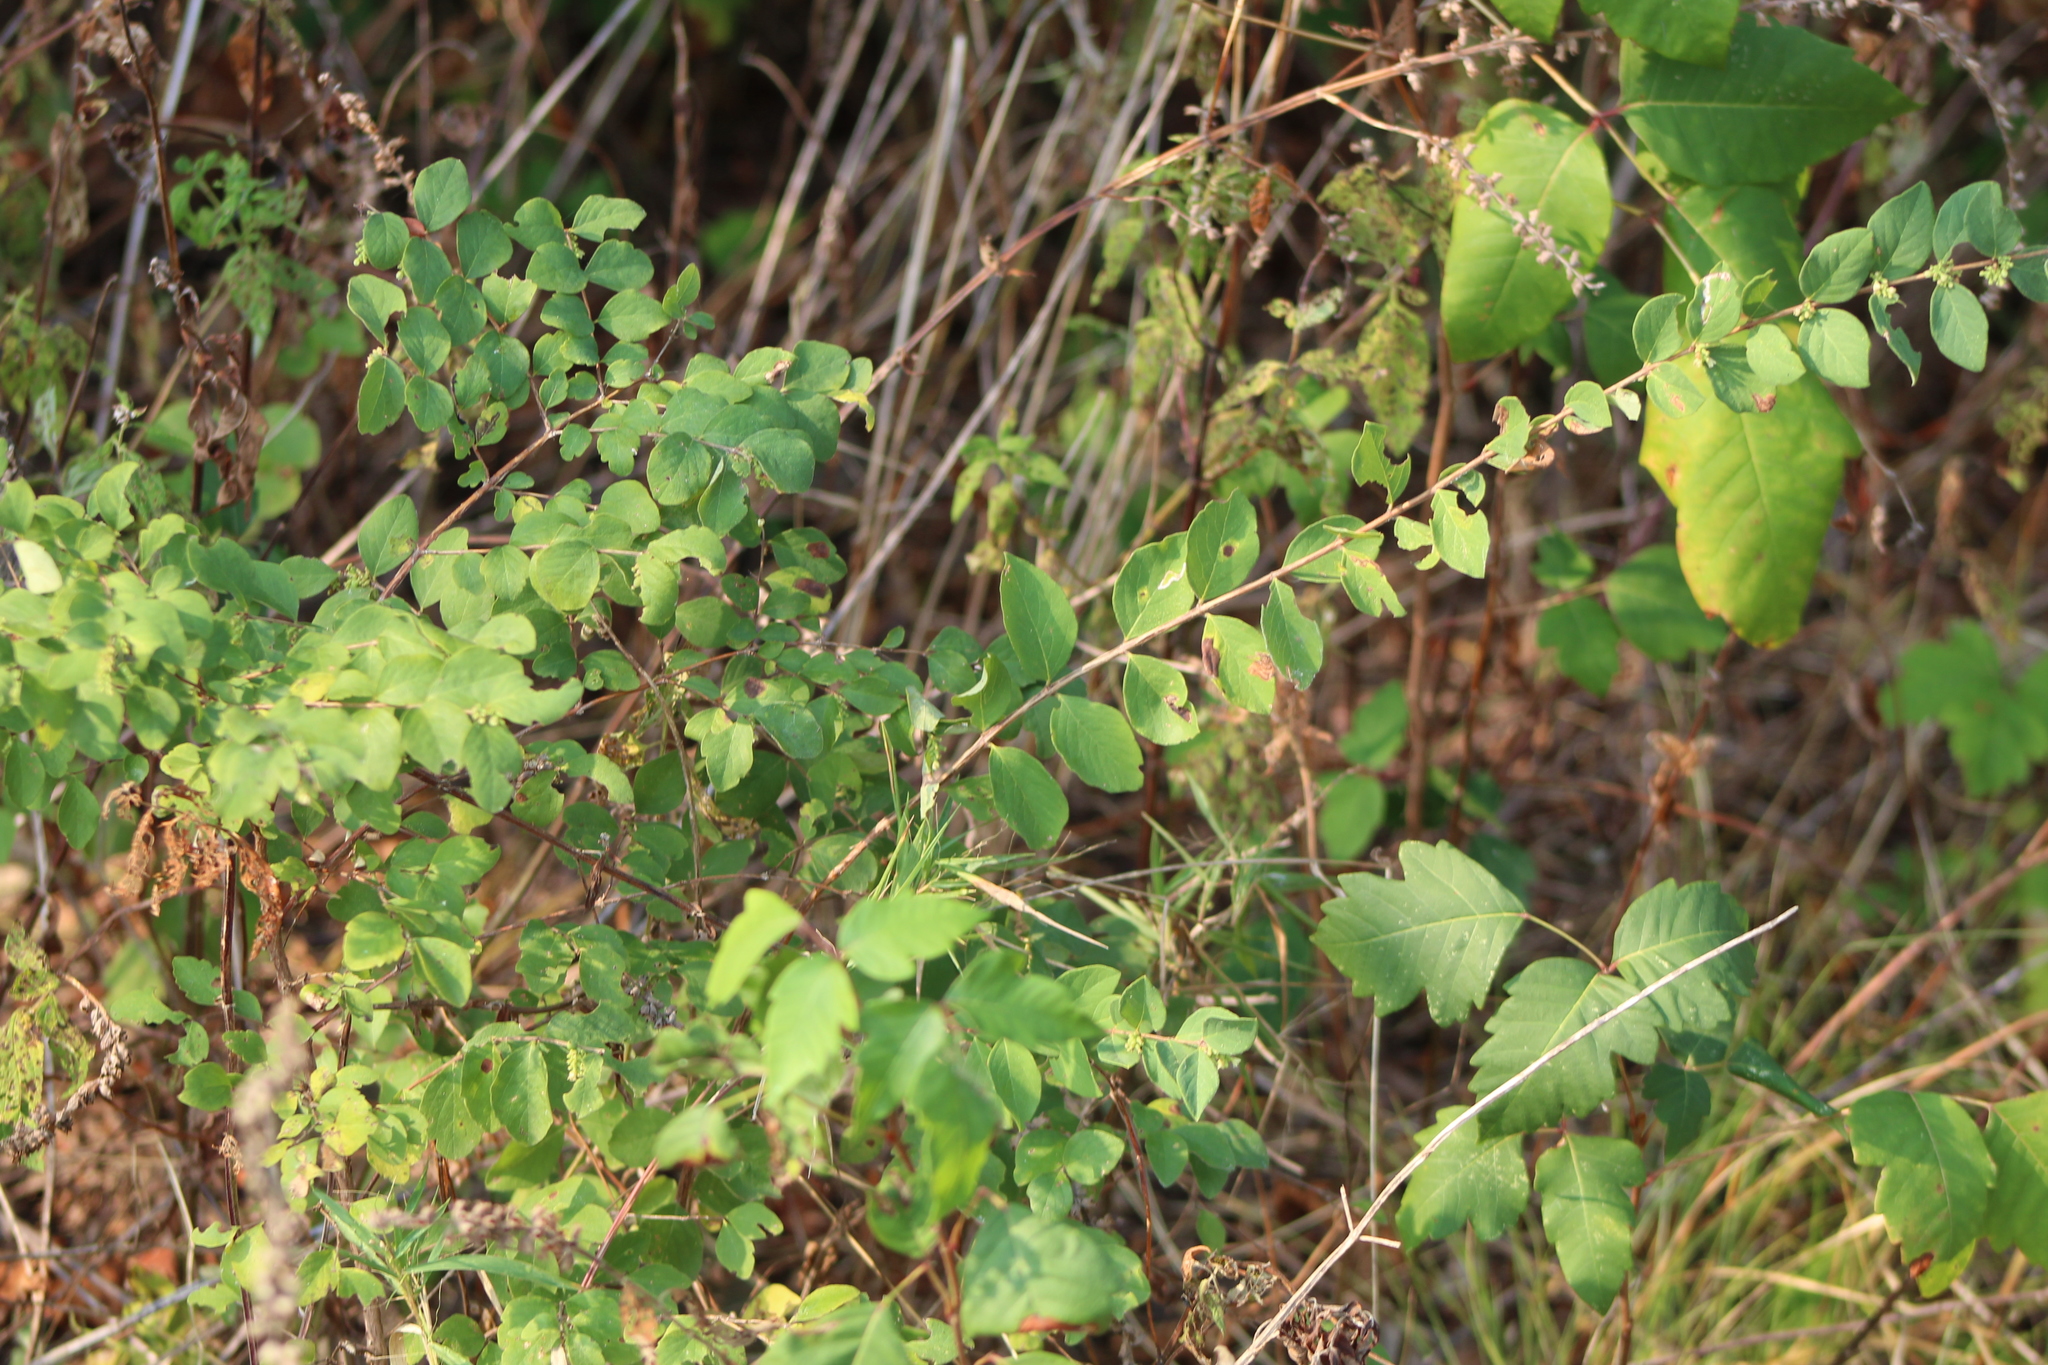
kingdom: Plantae
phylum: Tracheophyta
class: Magnoliopsida
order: Dipsacales
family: Caprifoliaceae
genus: Symphoricarpos
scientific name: Symphoricarpos orbiculatus
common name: Coralberry
